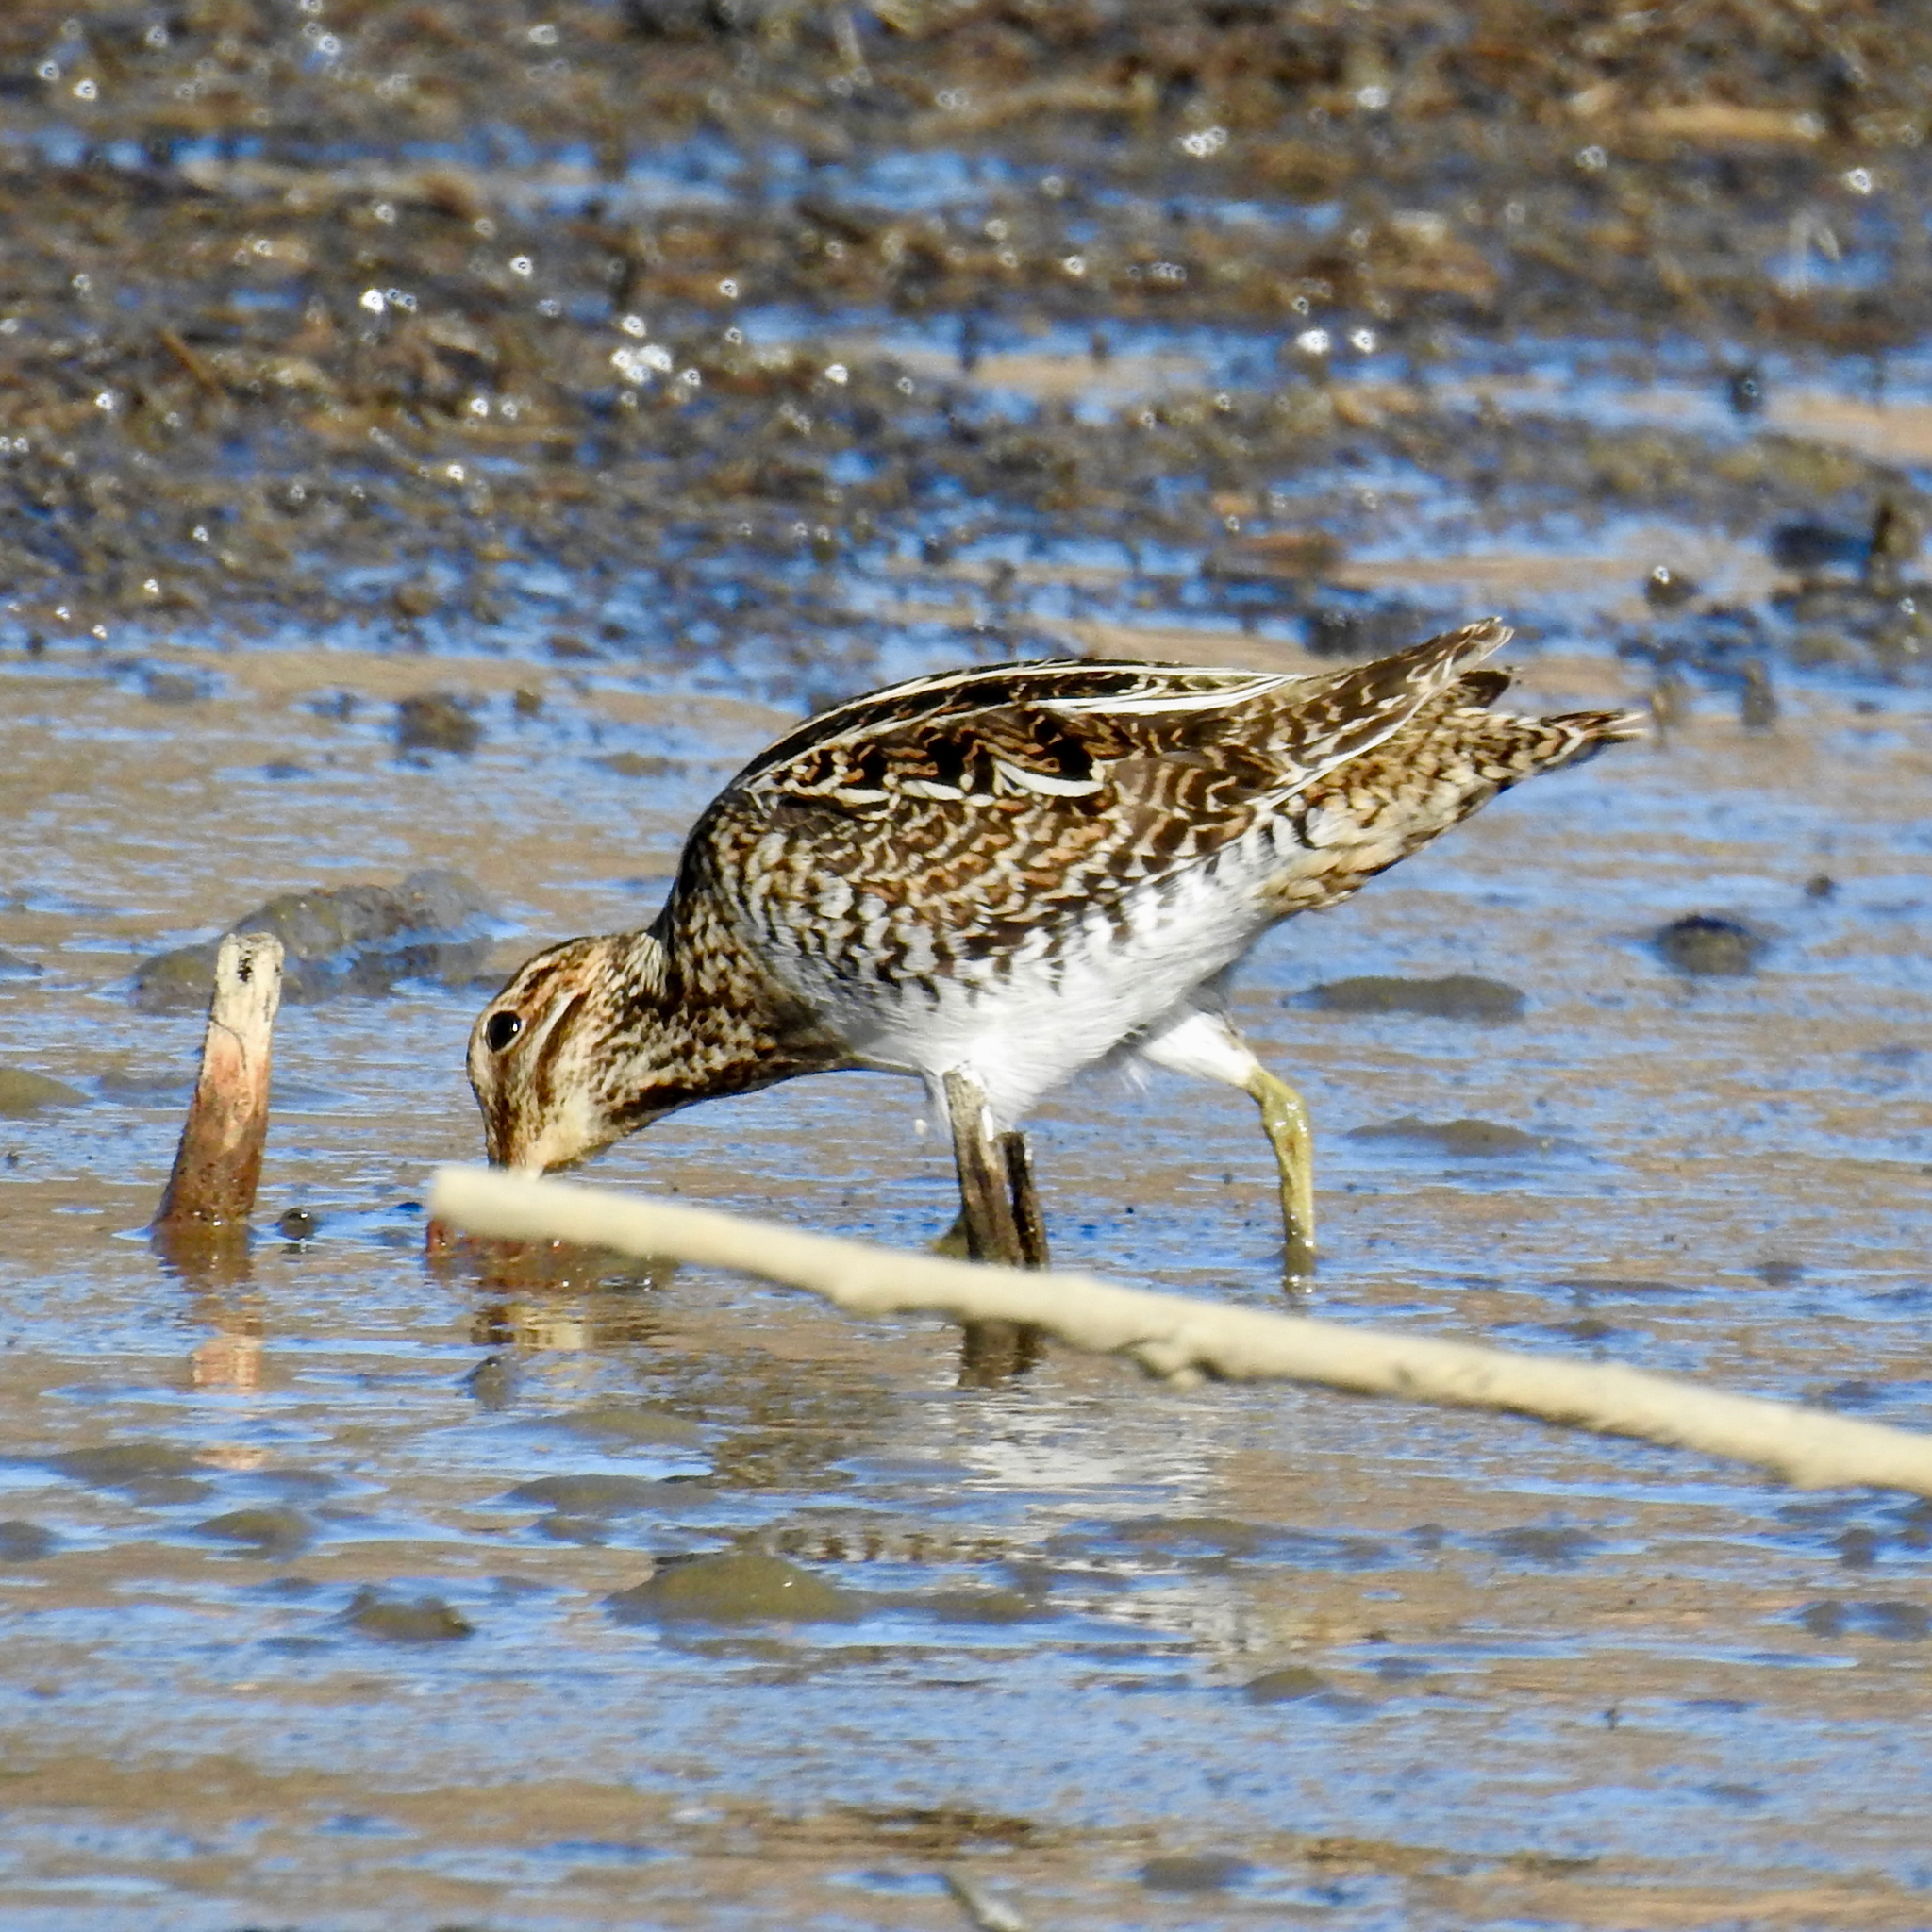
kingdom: Animalia
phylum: Chordata
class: Aves
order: Charadriiformes
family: Scolopacidae
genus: Gallinago
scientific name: Gallinago delicata
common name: Wilson's snipe
